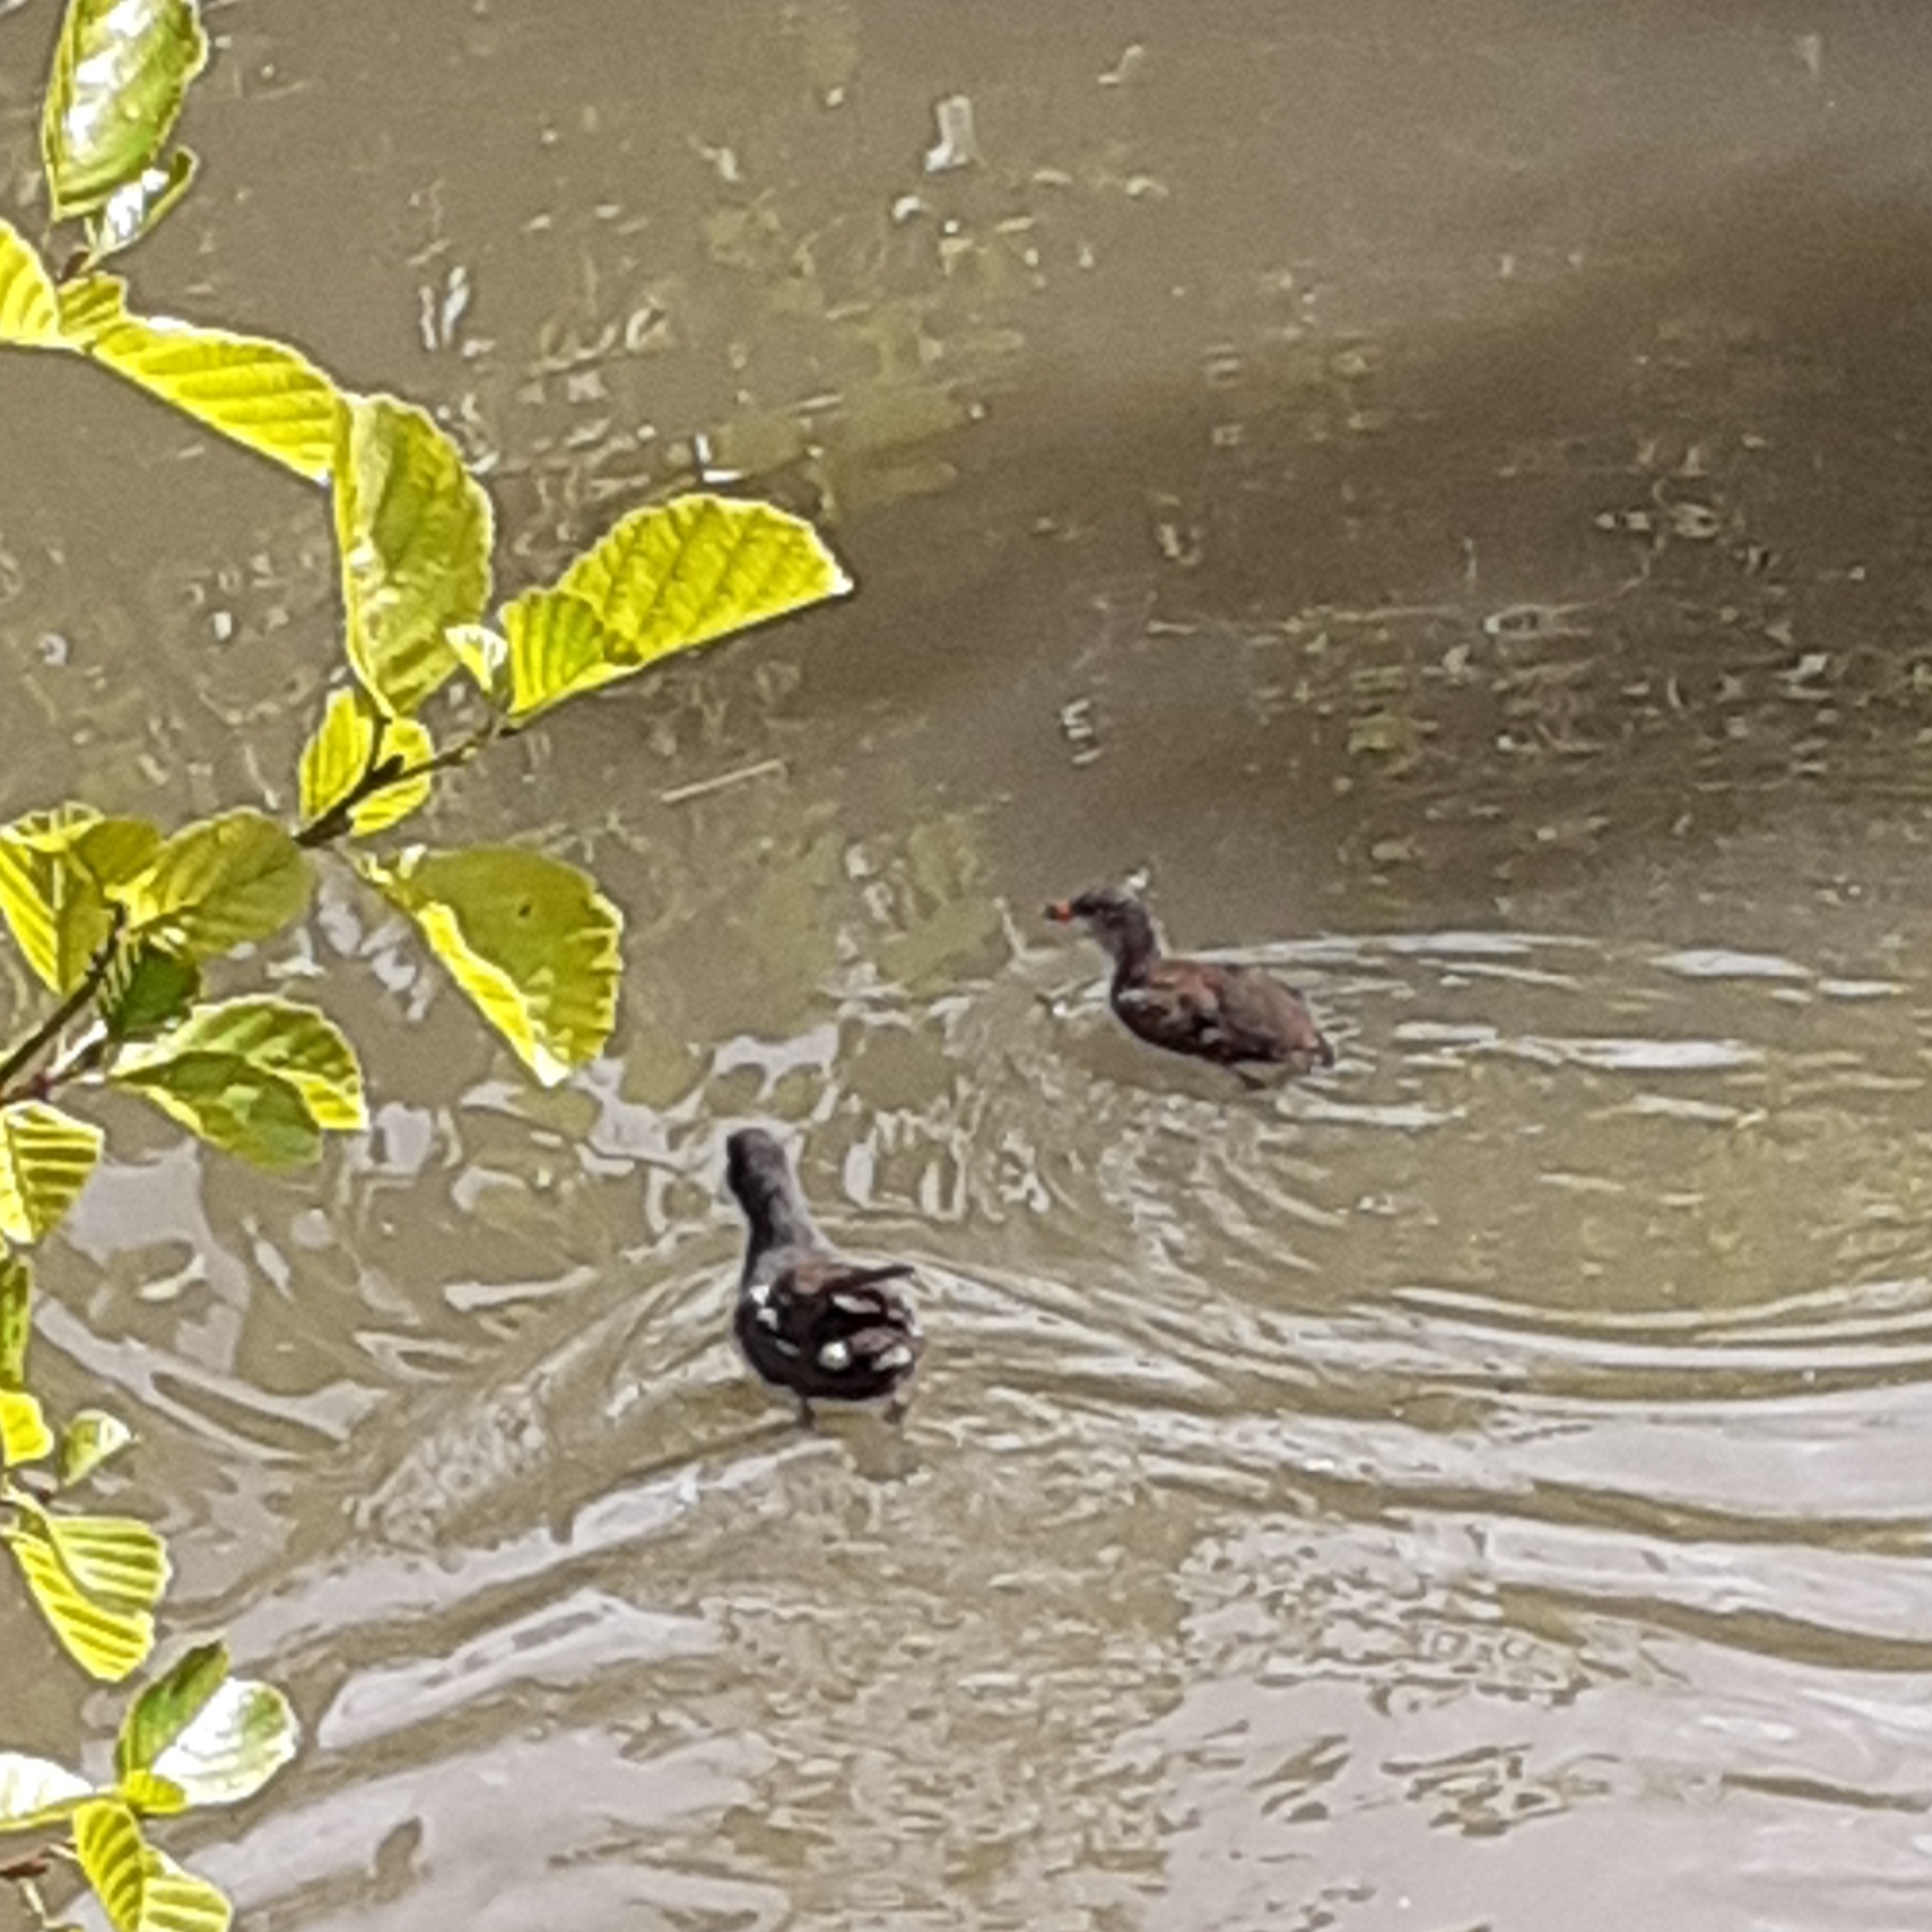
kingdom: Animalia
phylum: Chordata
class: Aves
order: Gruiformes
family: Rallidae
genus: Gallinula
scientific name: Gallinula chloropus
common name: Common moorhen
